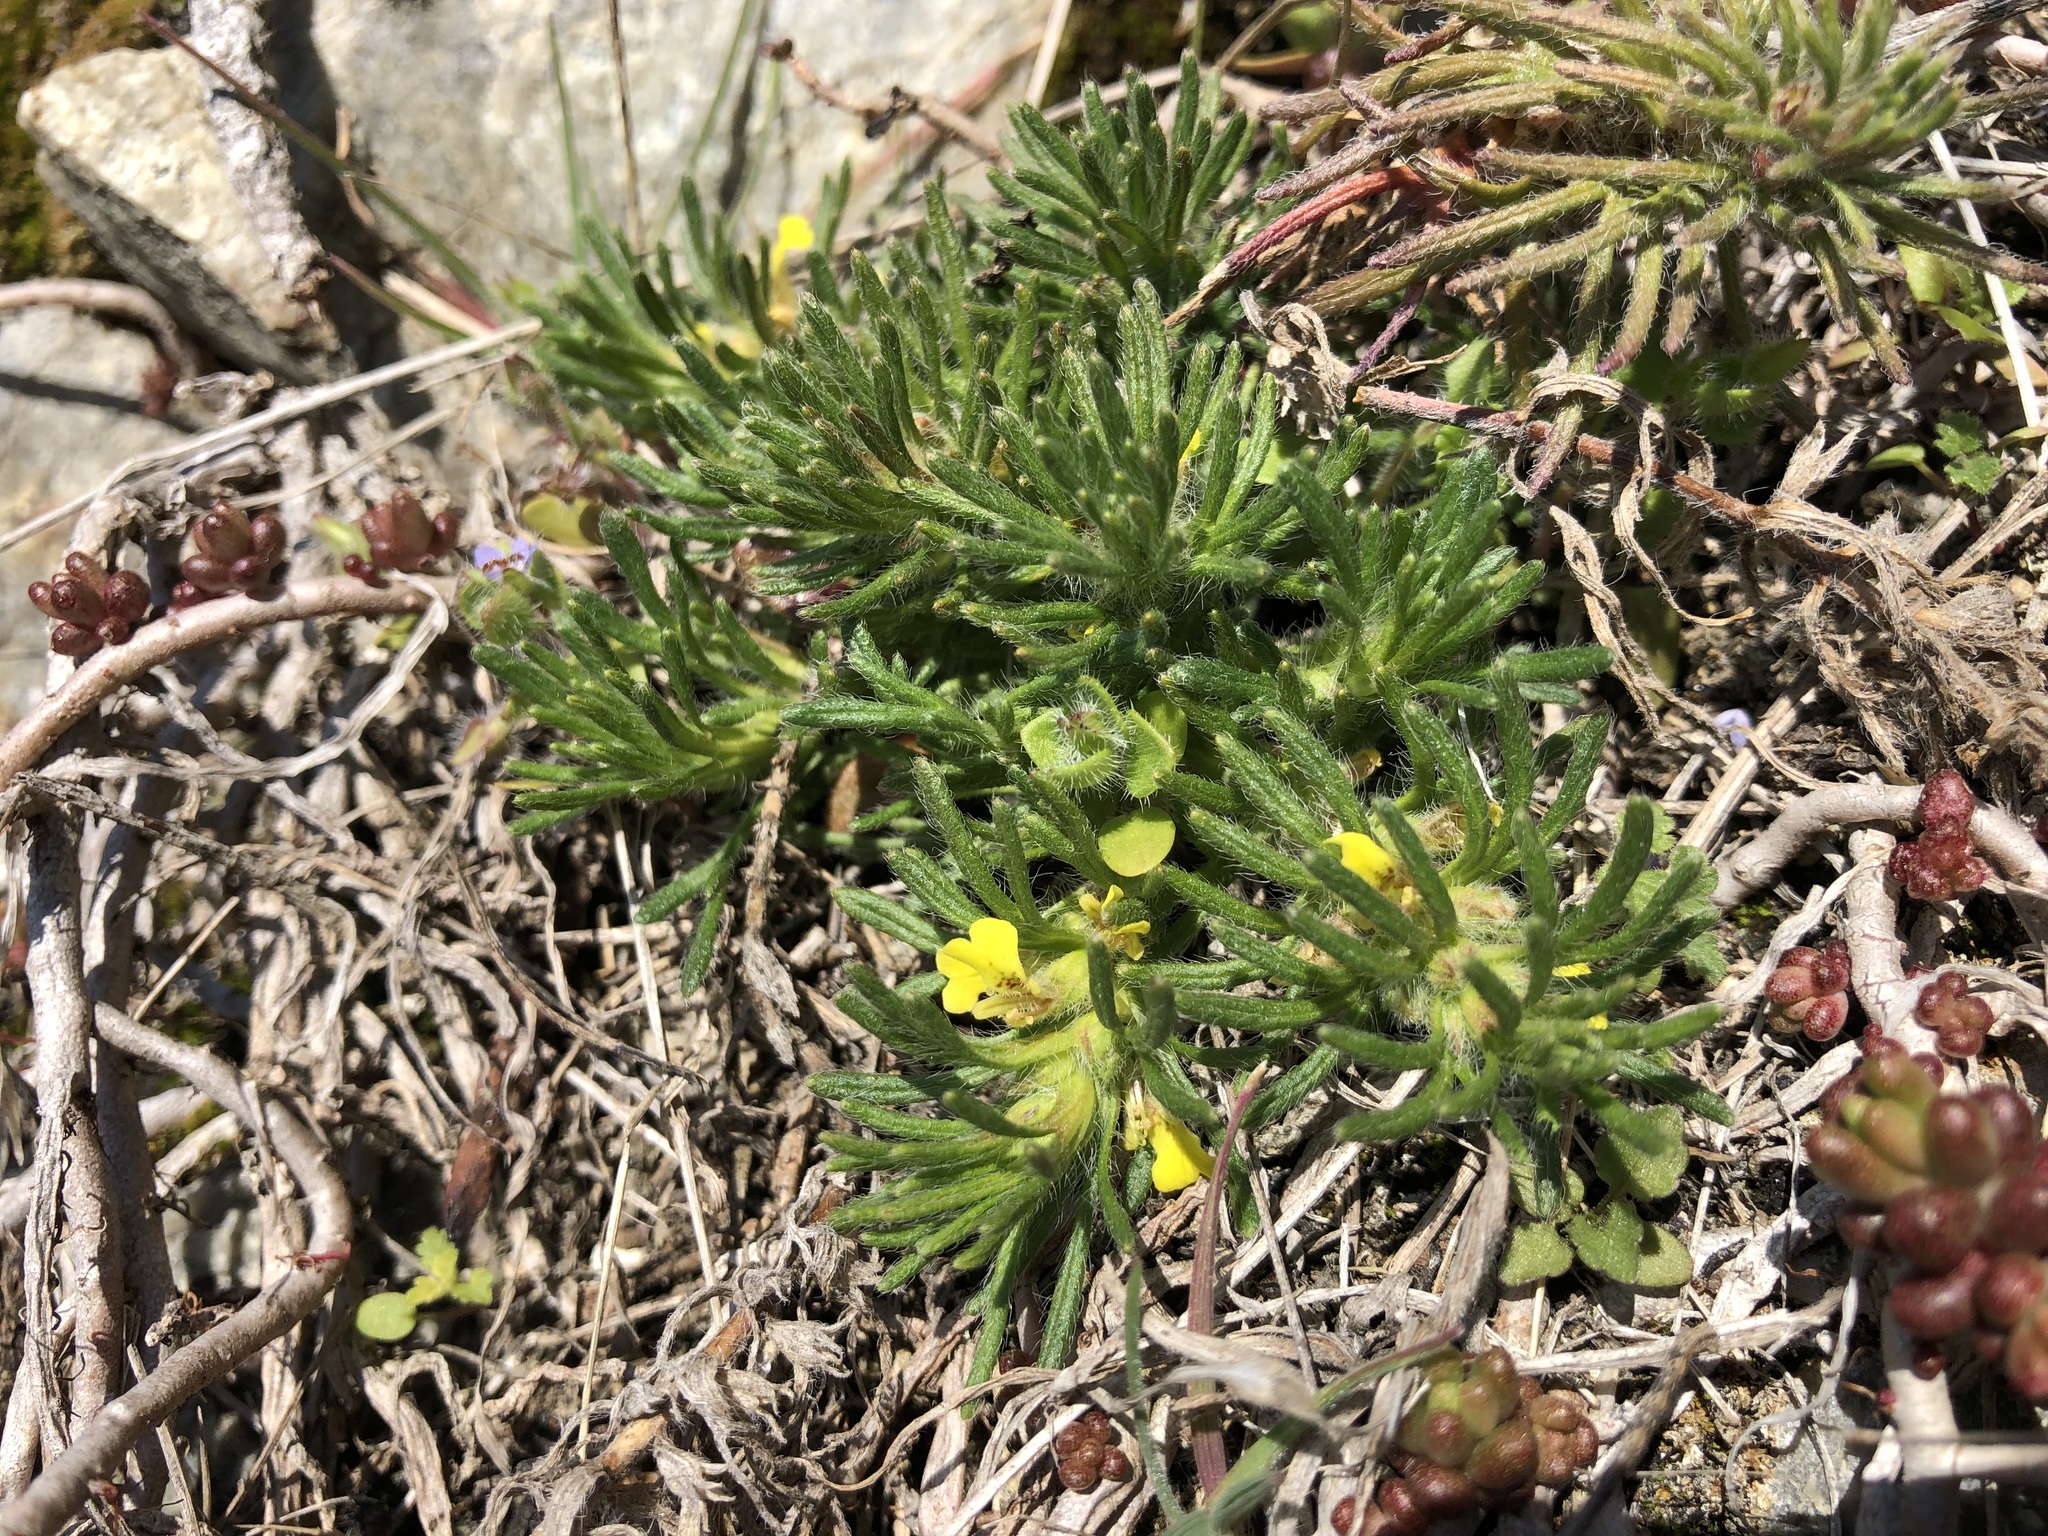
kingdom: Plantae
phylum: Tracheophyta
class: Magnoliopsida
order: Lamiales
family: Lamiaceae
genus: Ajuga
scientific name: Ajuga chamaepitys
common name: Ground-pine
